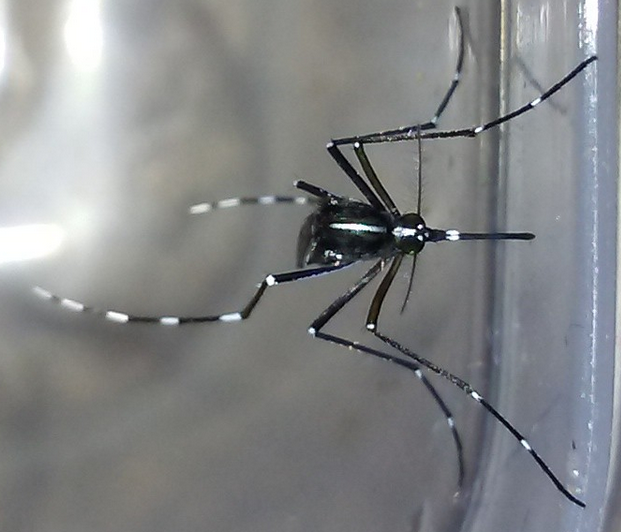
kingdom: Animalia
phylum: Arthropoda
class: Insecta
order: Diptera
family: Culicidae
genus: Aedes
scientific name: Aedes albopictus
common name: Tiger mosquito
